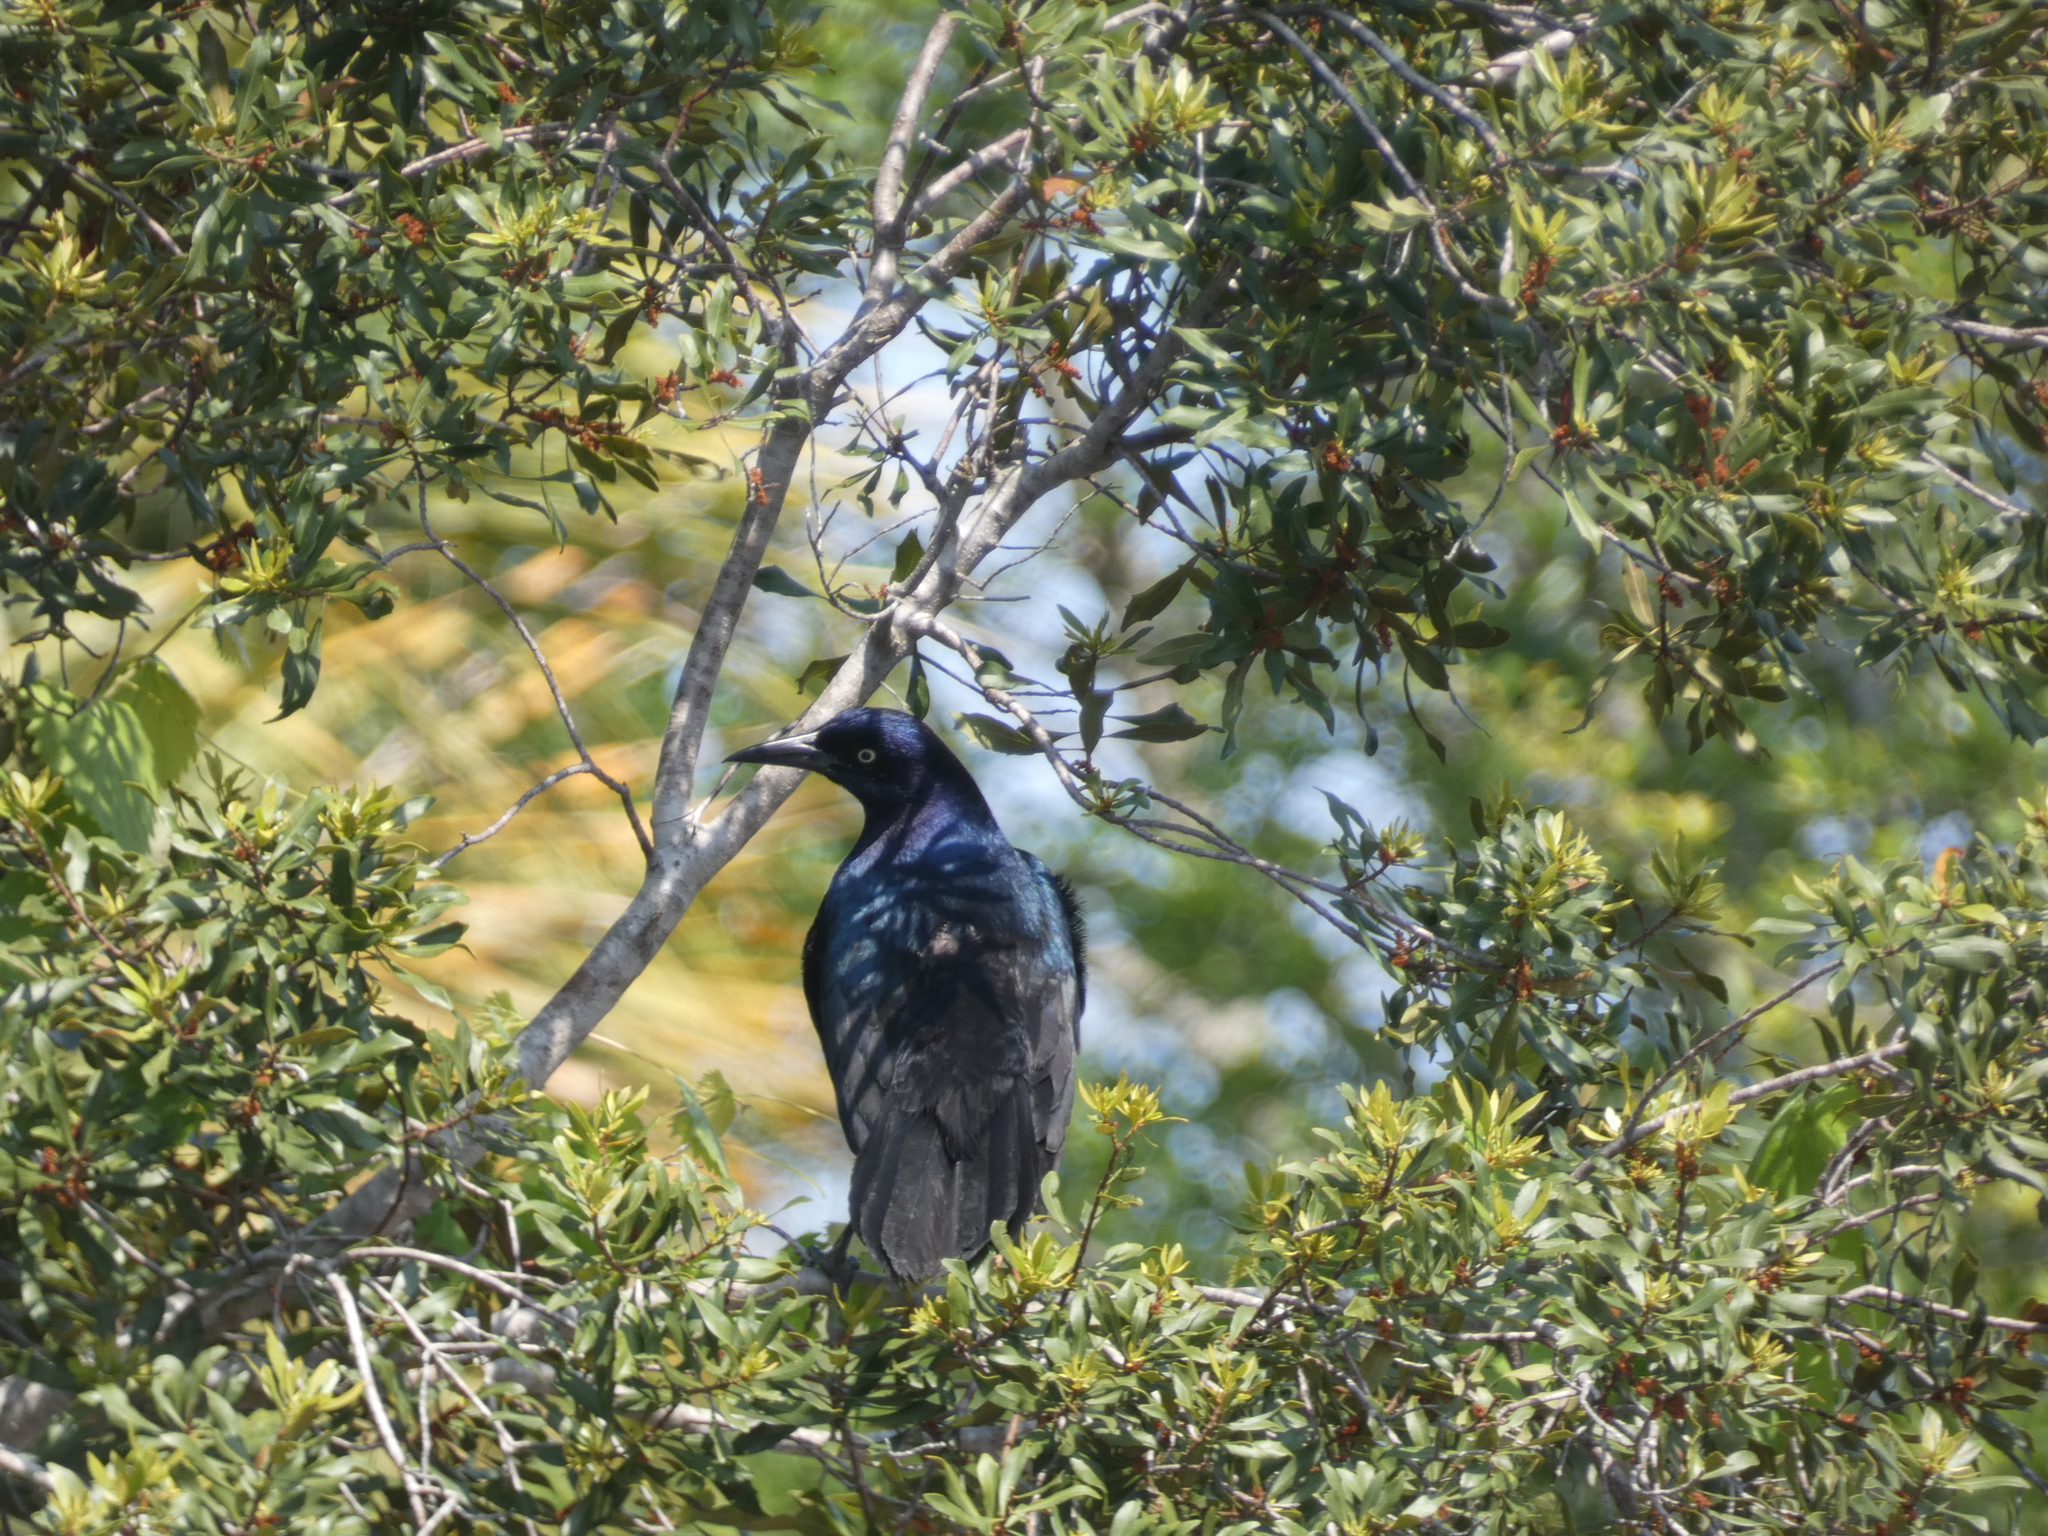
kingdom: Animalia
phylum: Chordata
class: Aves
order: Passeriformes
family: Icteridae
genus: Quiscalus
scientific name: Quiscalus major
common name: Boat-tailed grackle
